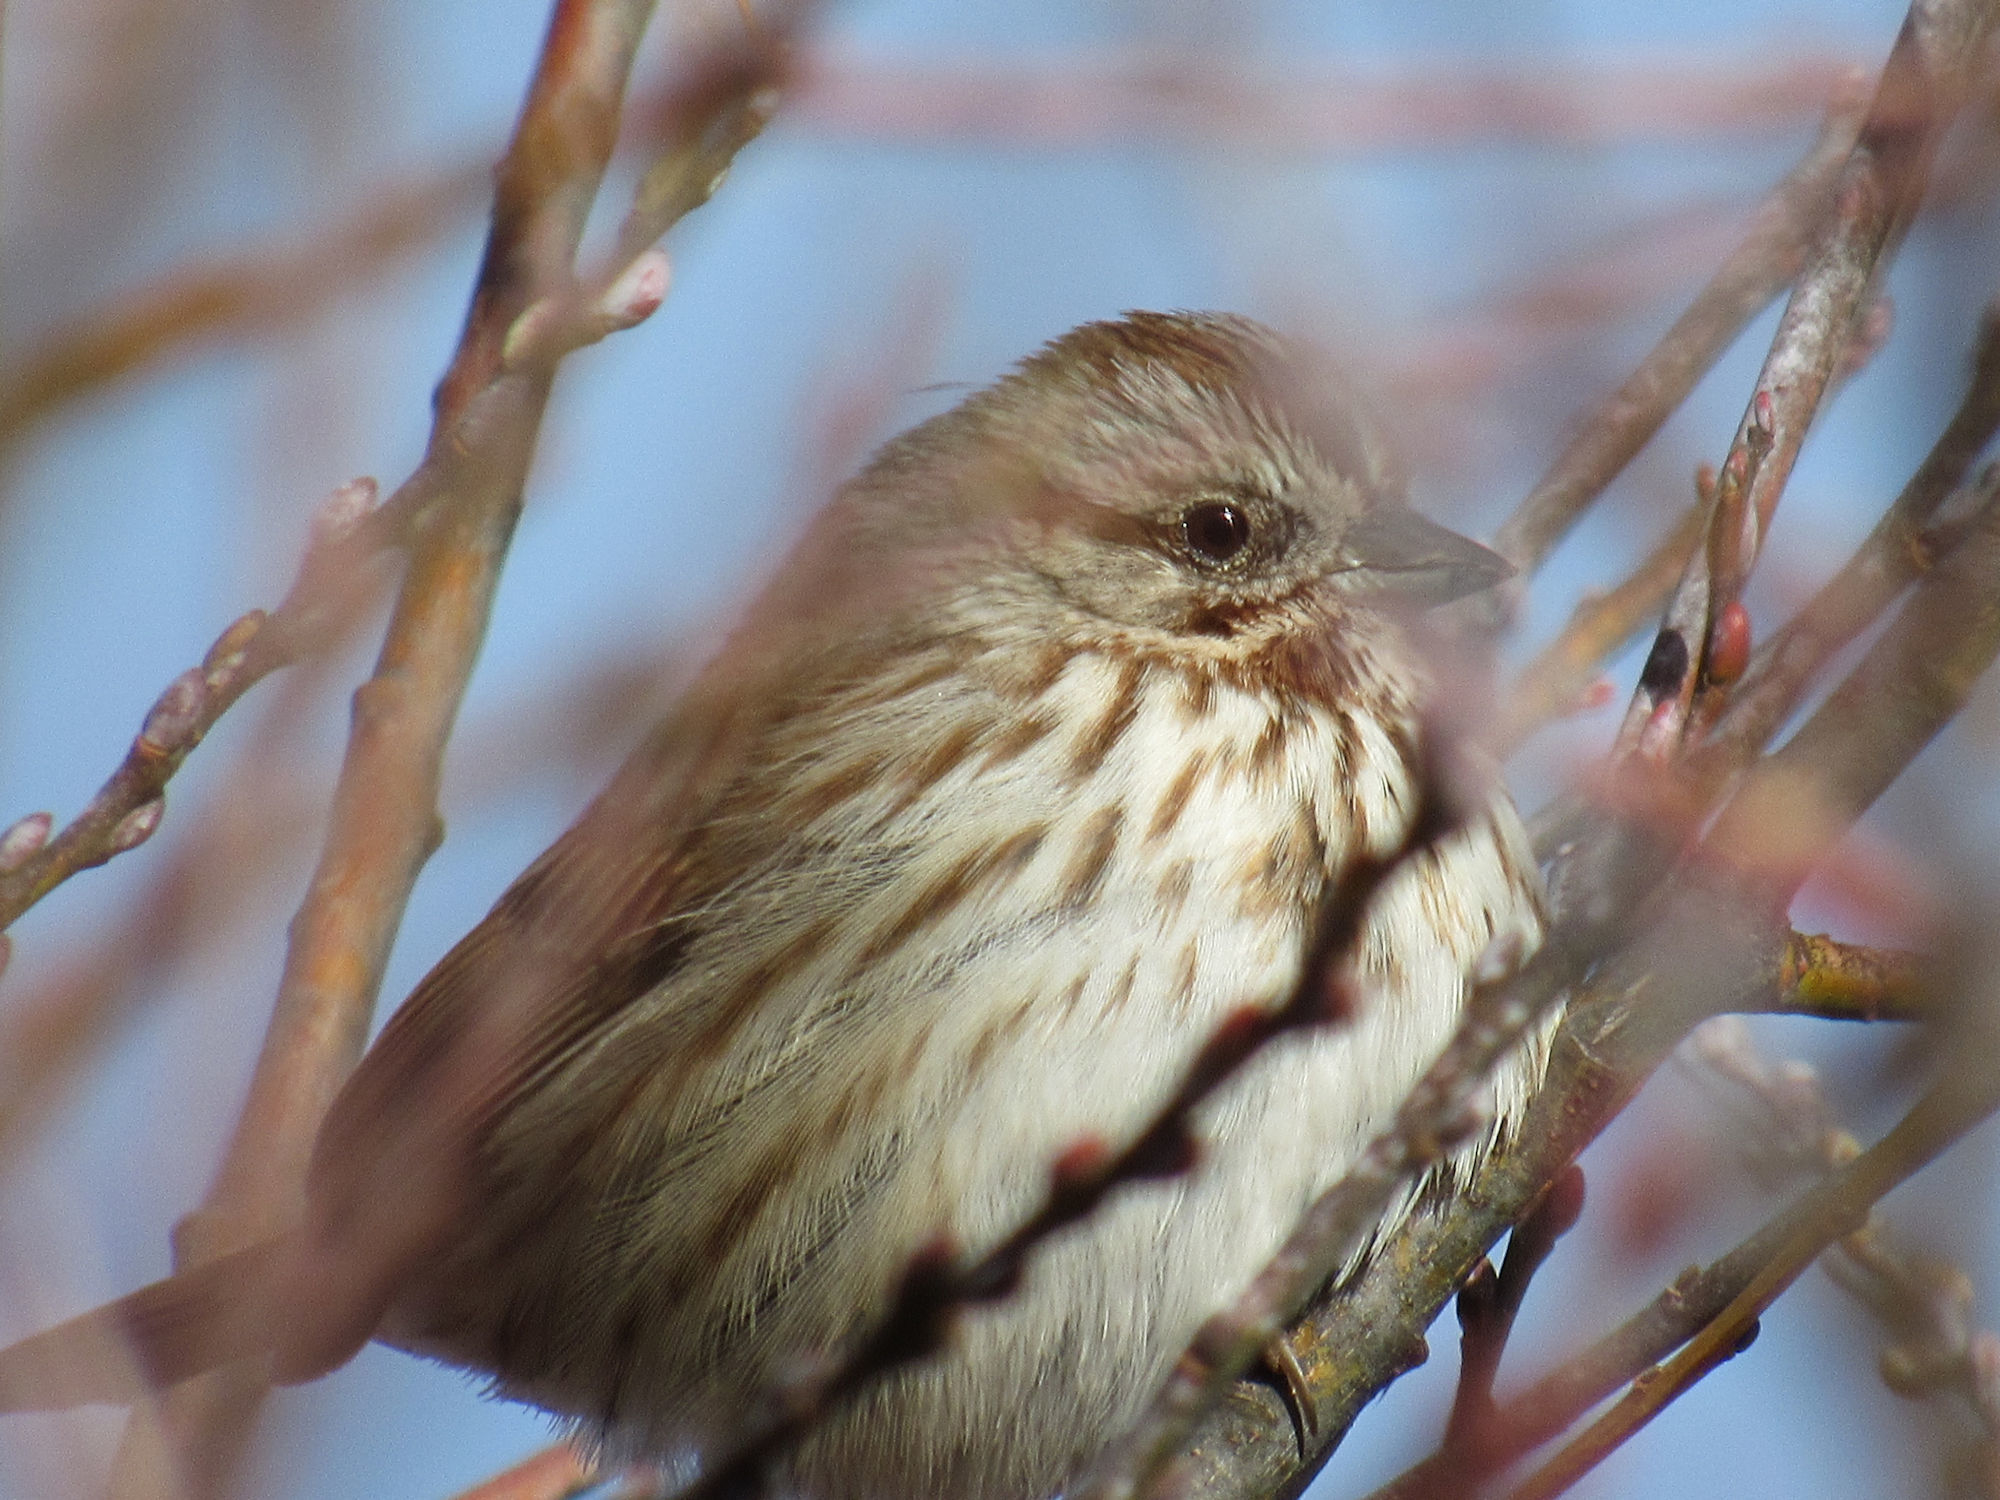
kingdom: Animalia
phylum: Chordata
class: Aves
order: Passeriformes
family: Passerellidae
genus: Melospiza
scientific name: Melospiza melodia
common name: Song sparrow
